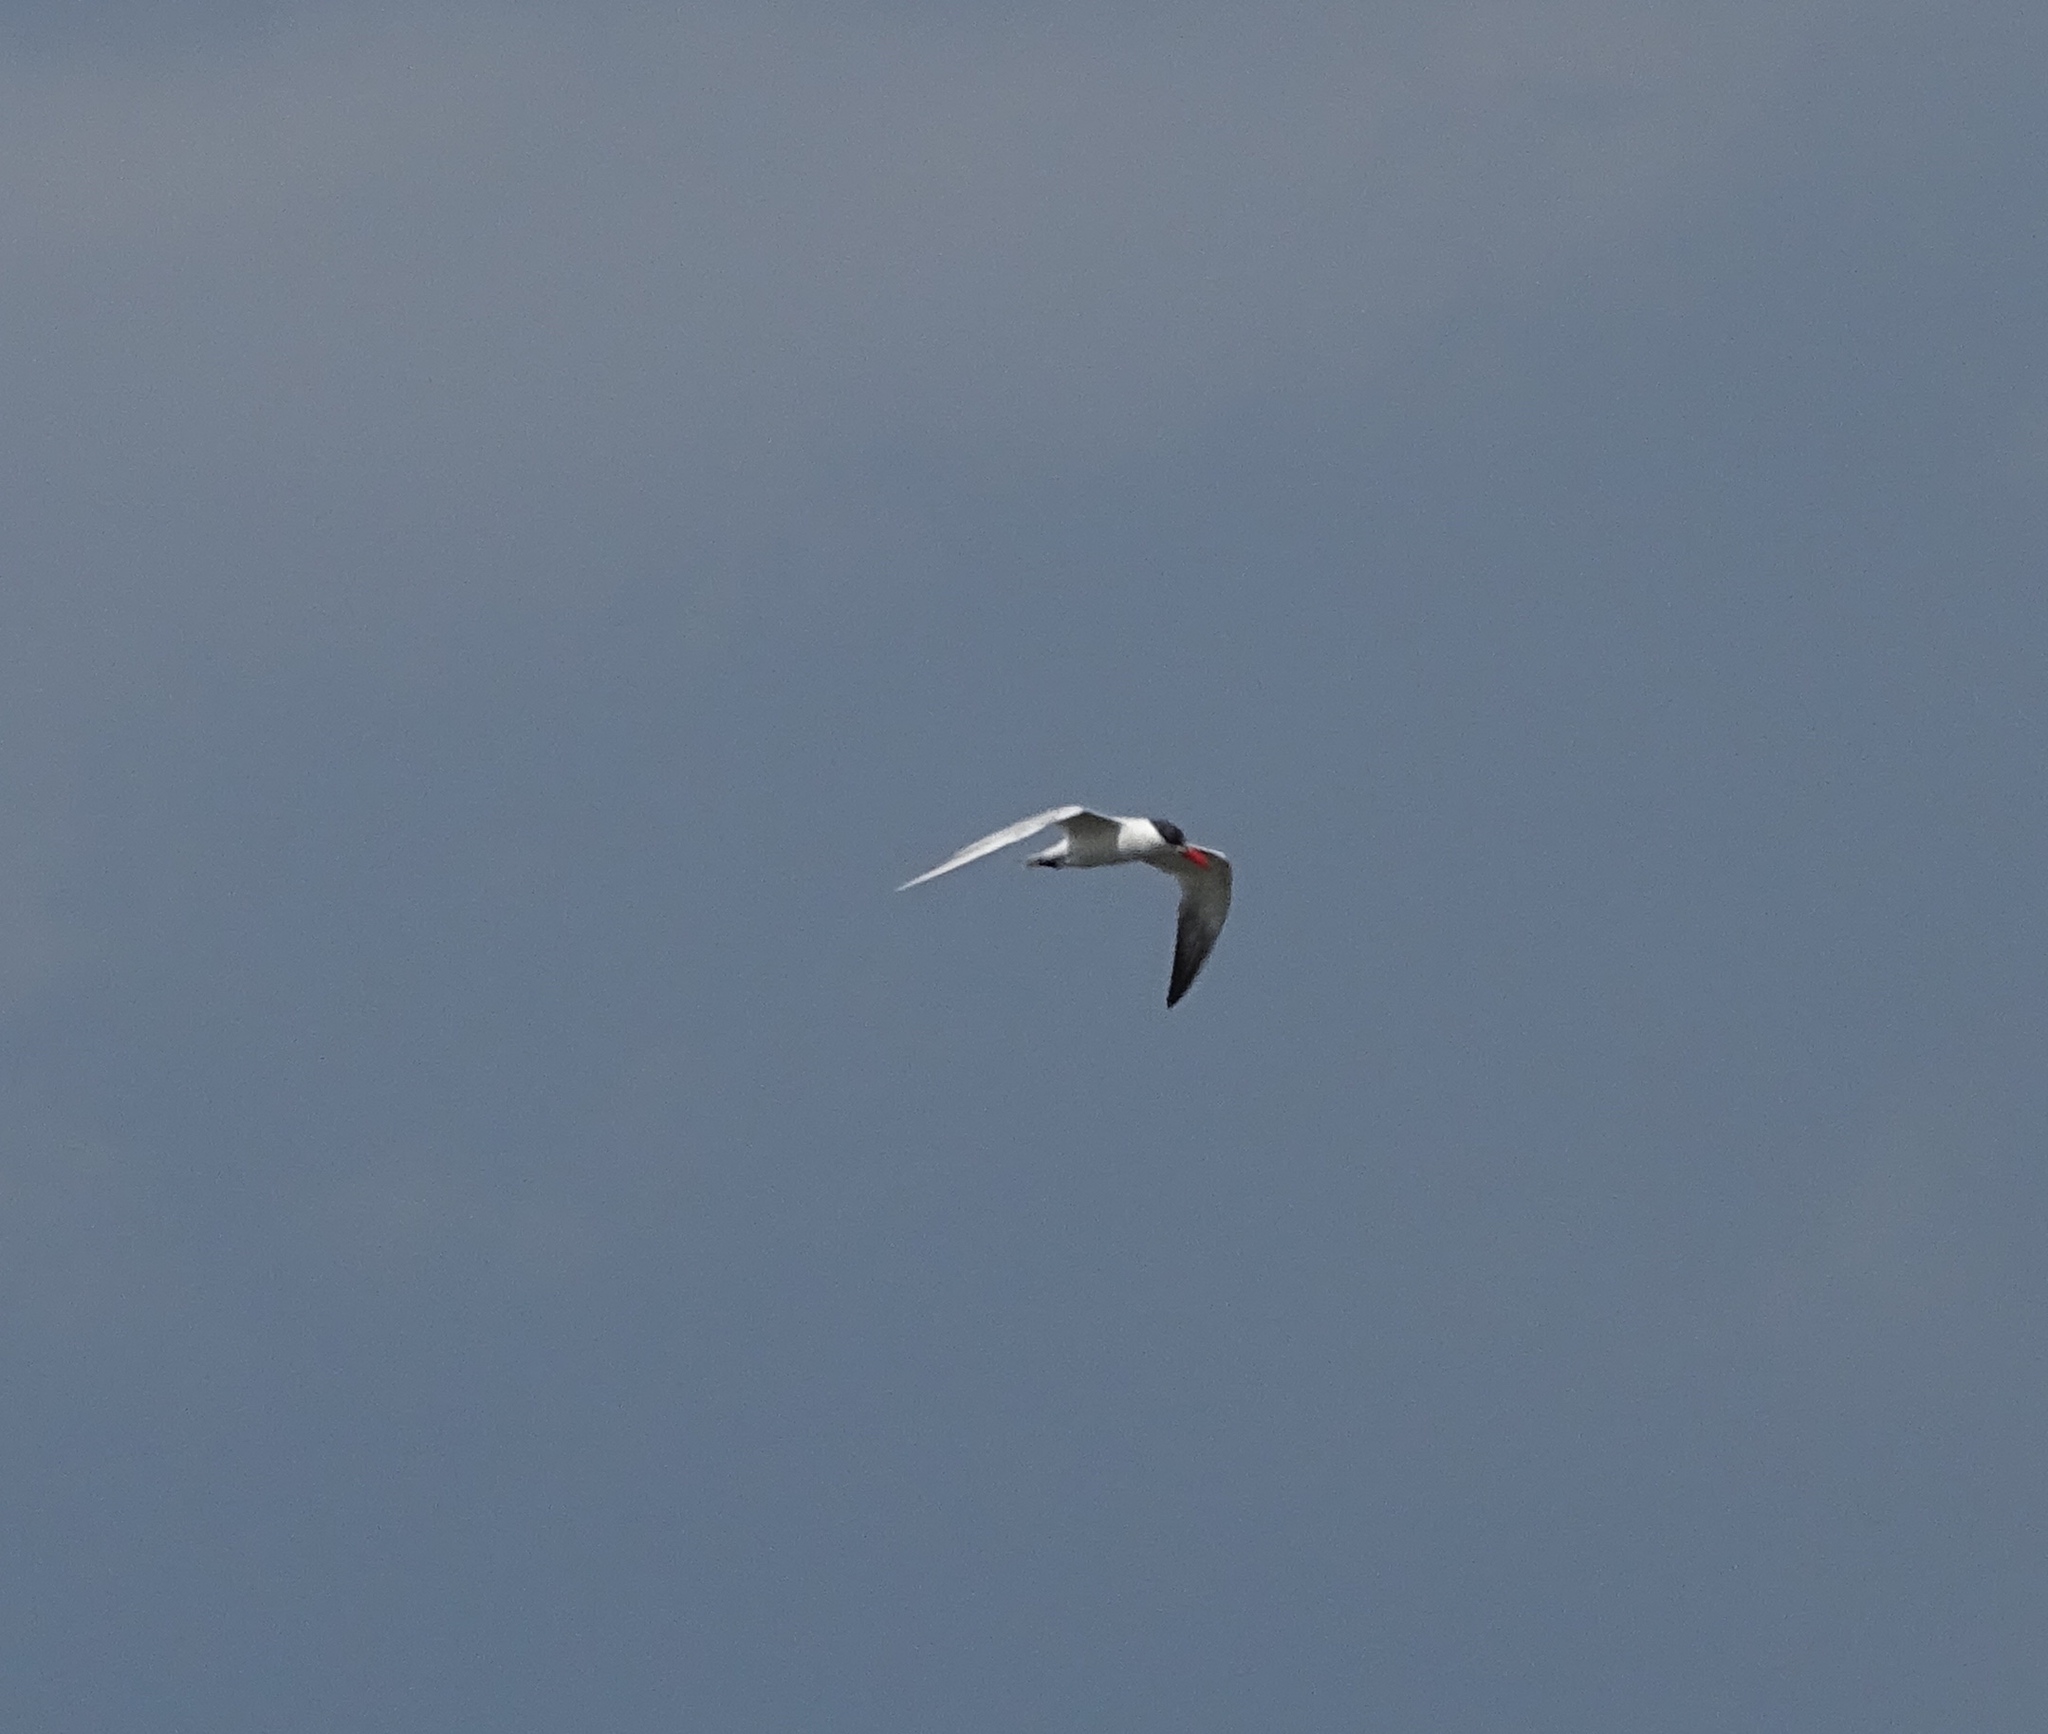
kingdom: Animalia
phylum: Chordata
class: Aves
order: Charadriiformes
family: Laridae
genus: Hydroprogne
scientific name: Hydroprogne caspia
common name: Caspian tern
